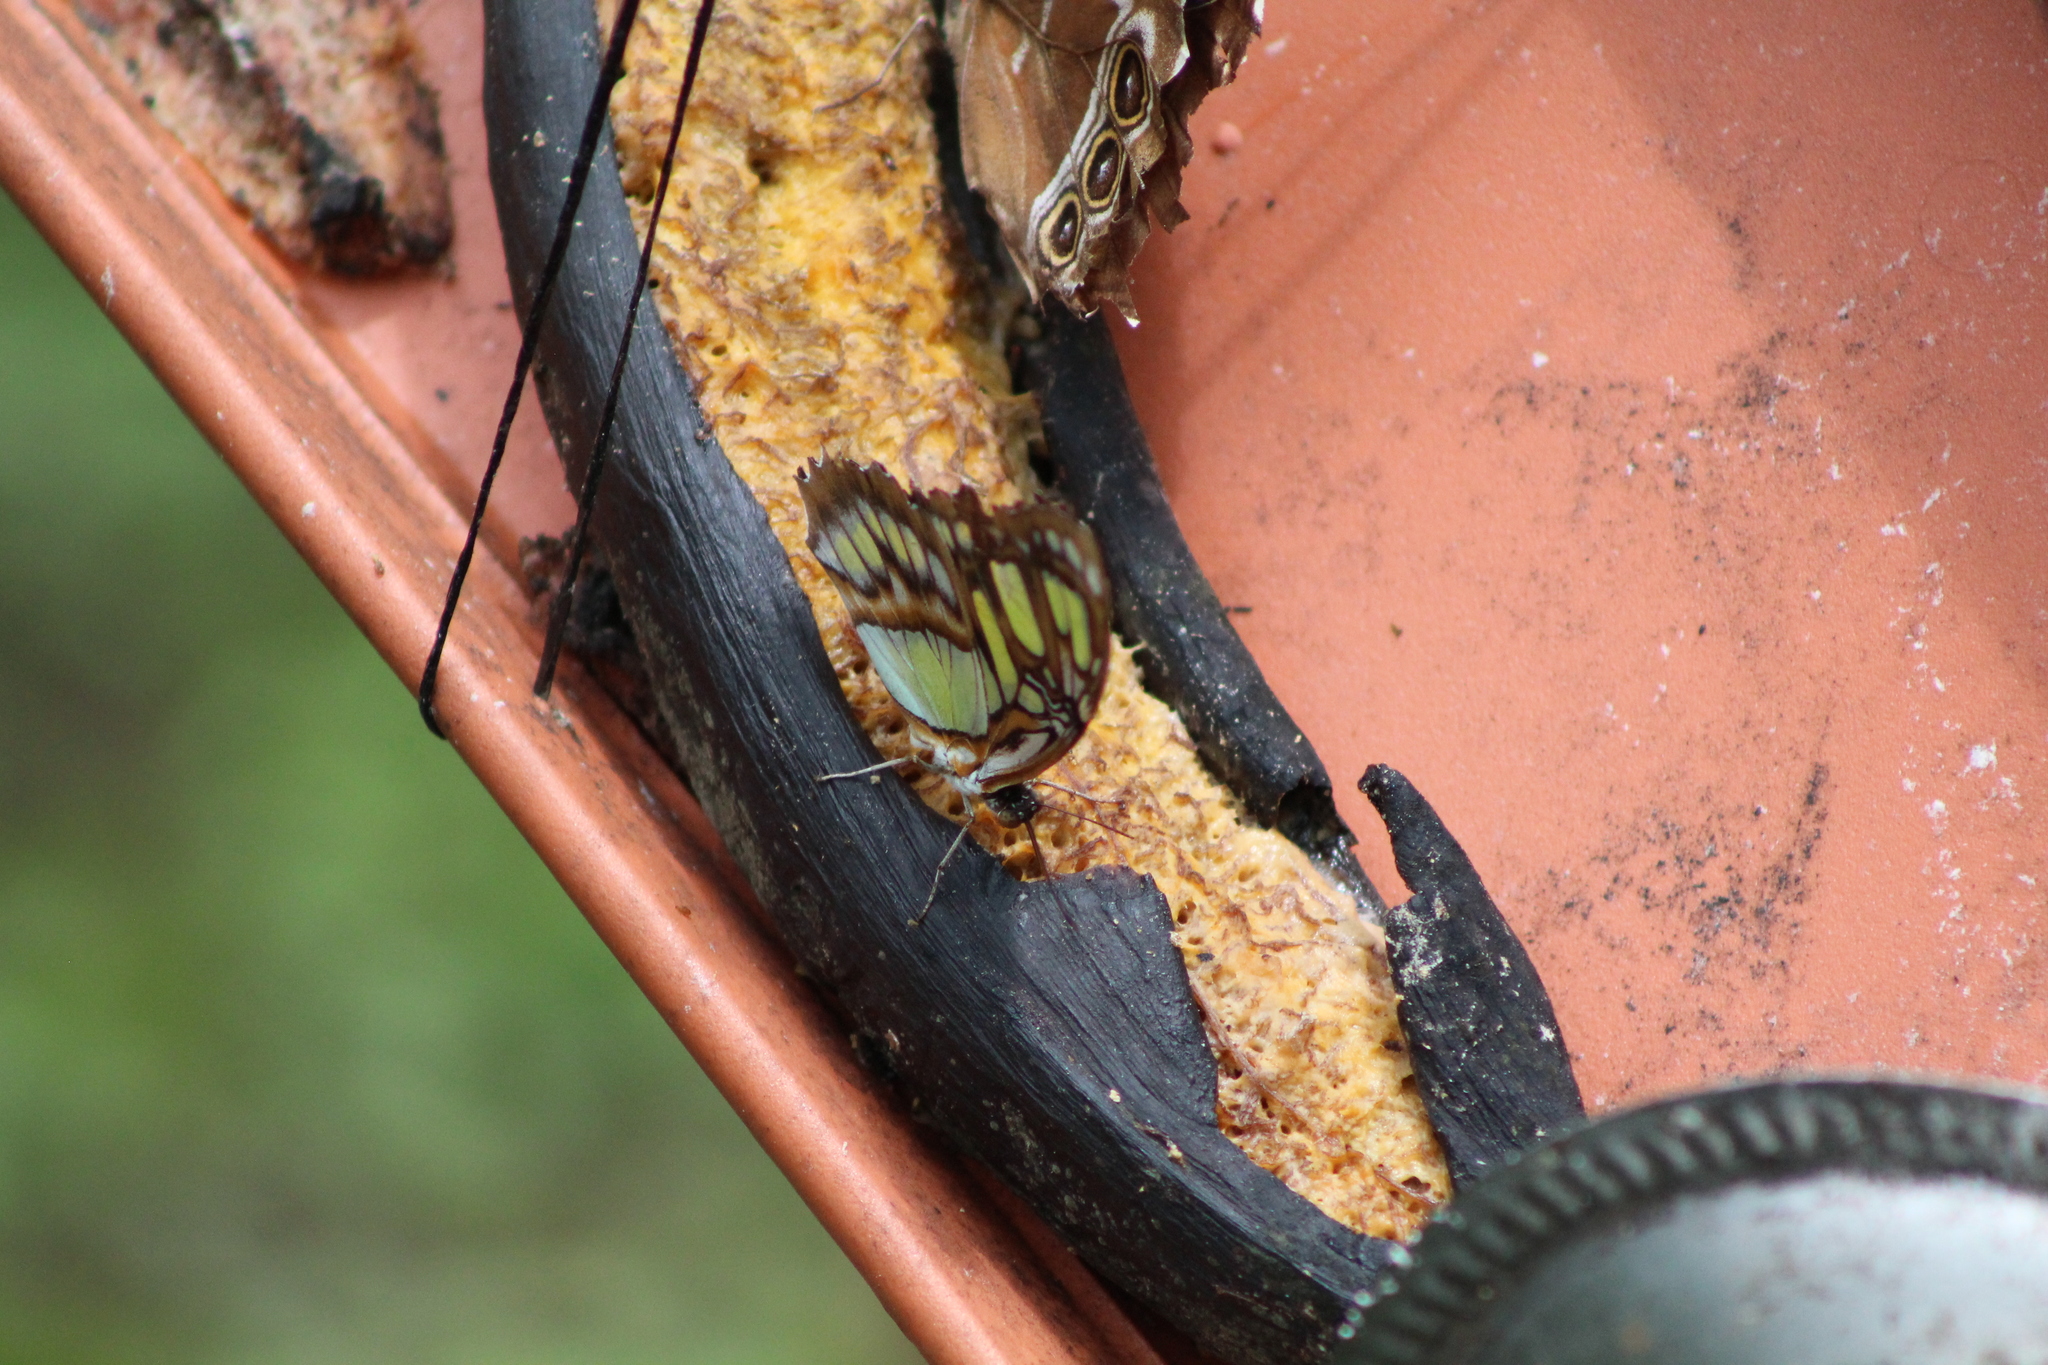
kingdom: Animalia
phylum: Arthropoda
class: Insecta
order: Lepidoptera
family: Nymphalidae
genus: Siproeta
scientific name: Siproeta stelenes
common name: Malachite
